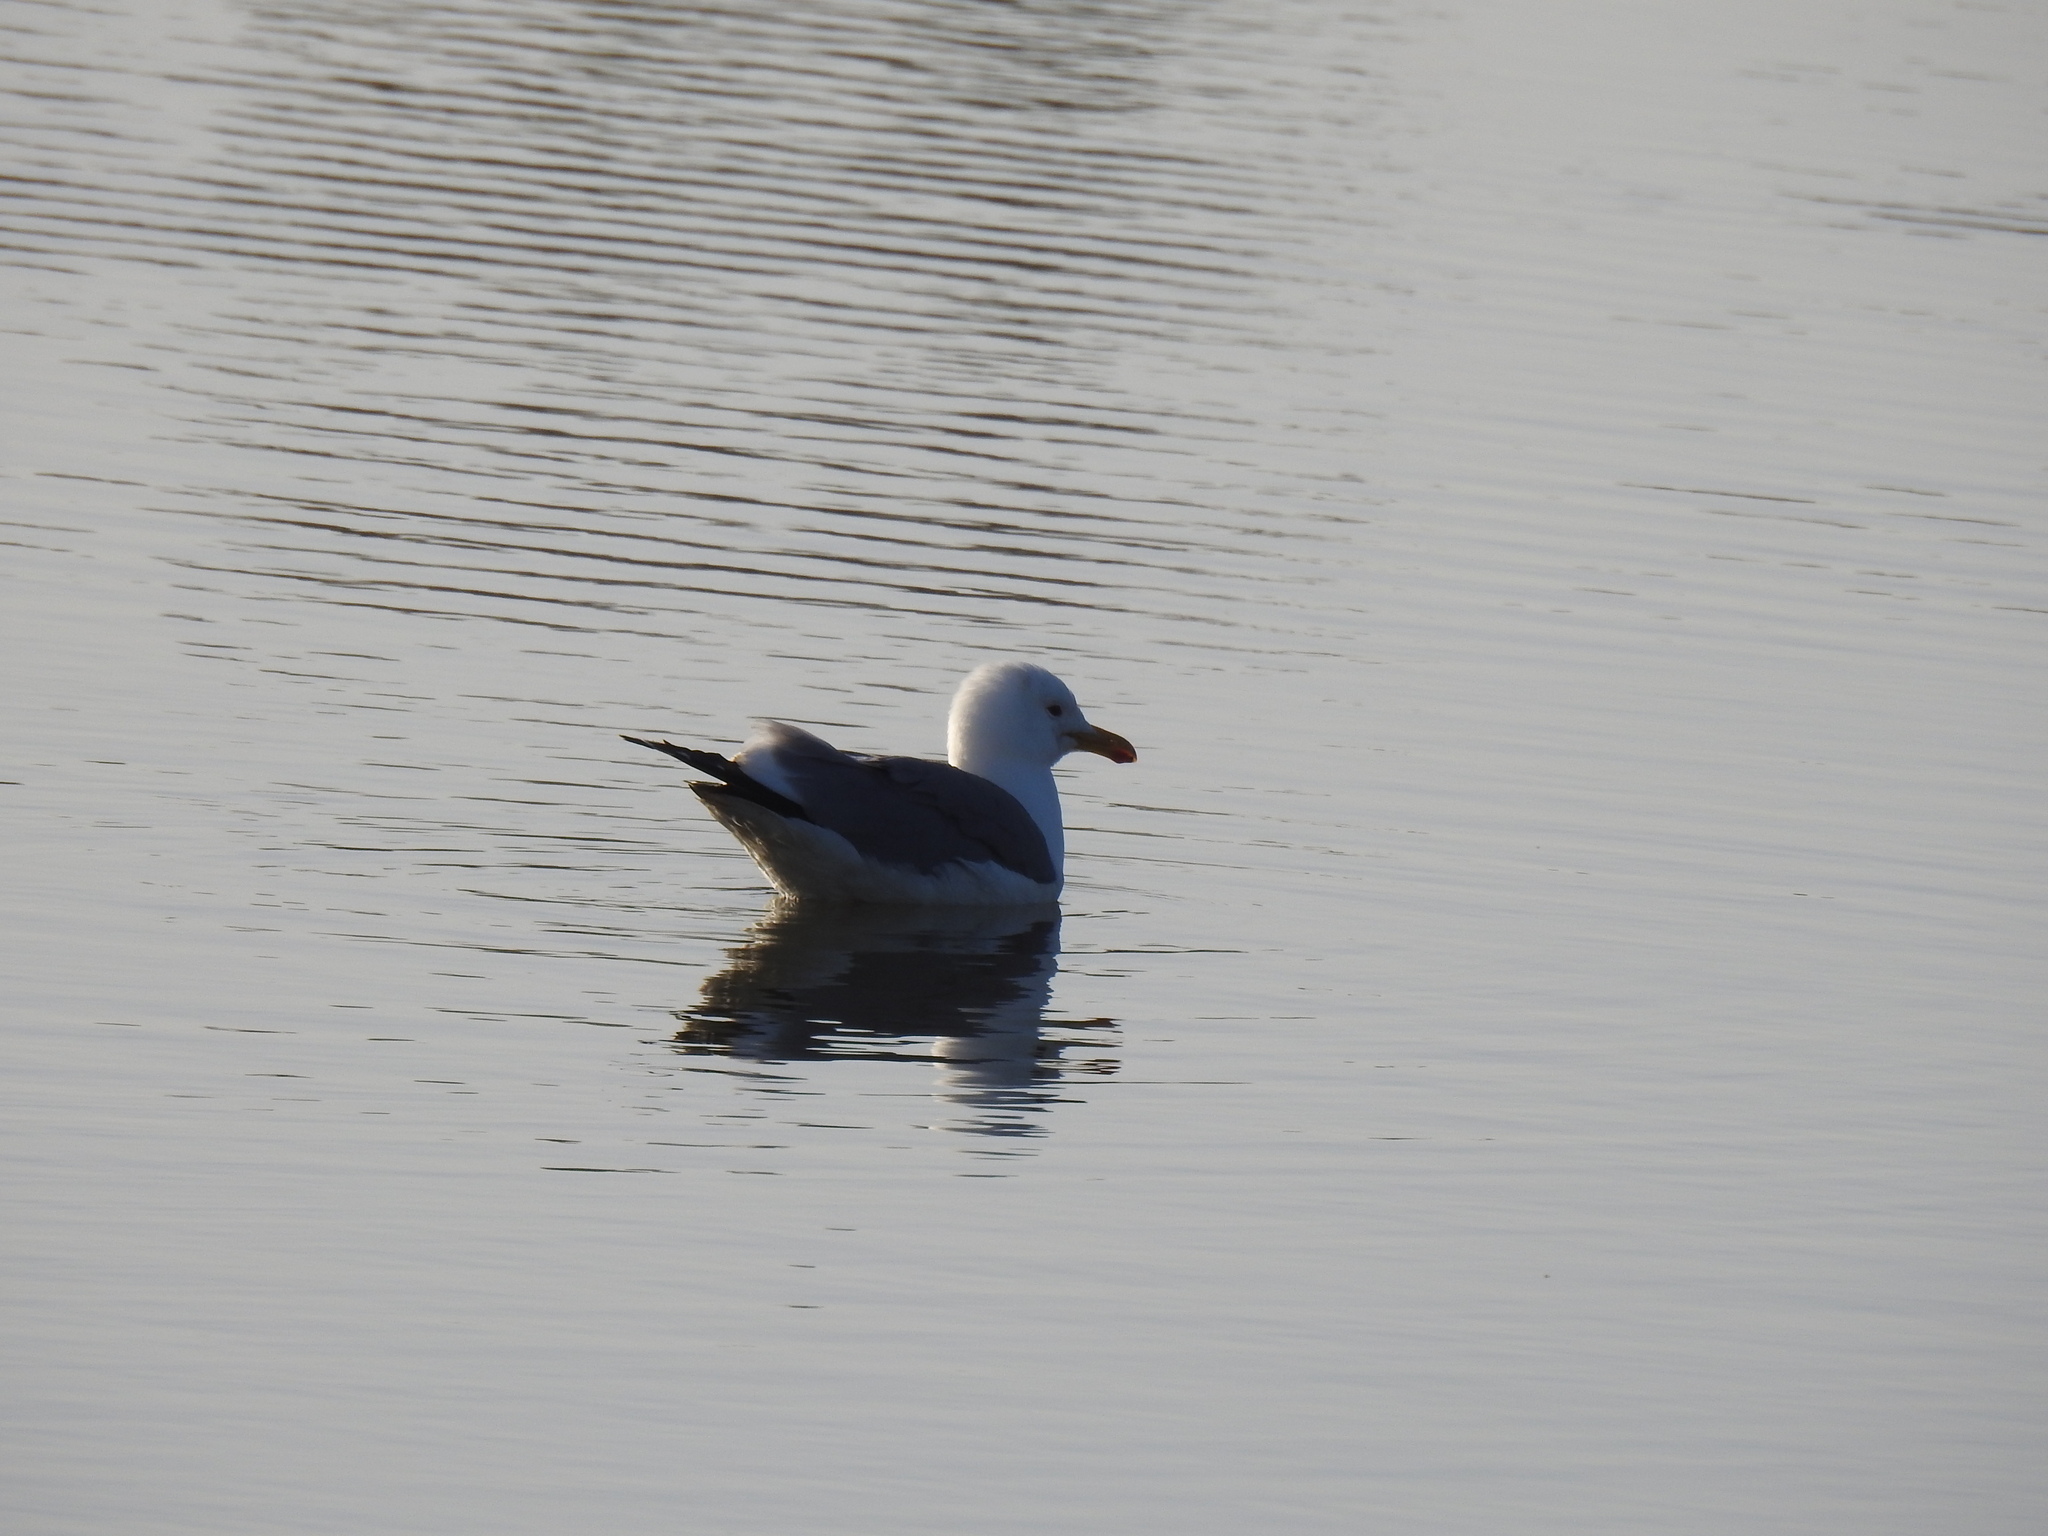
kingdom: Animalia
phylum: Chordata
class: Aves
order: Charadriiformes
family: Laridae
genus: Larus
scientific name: Larus californicus
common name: California gull
